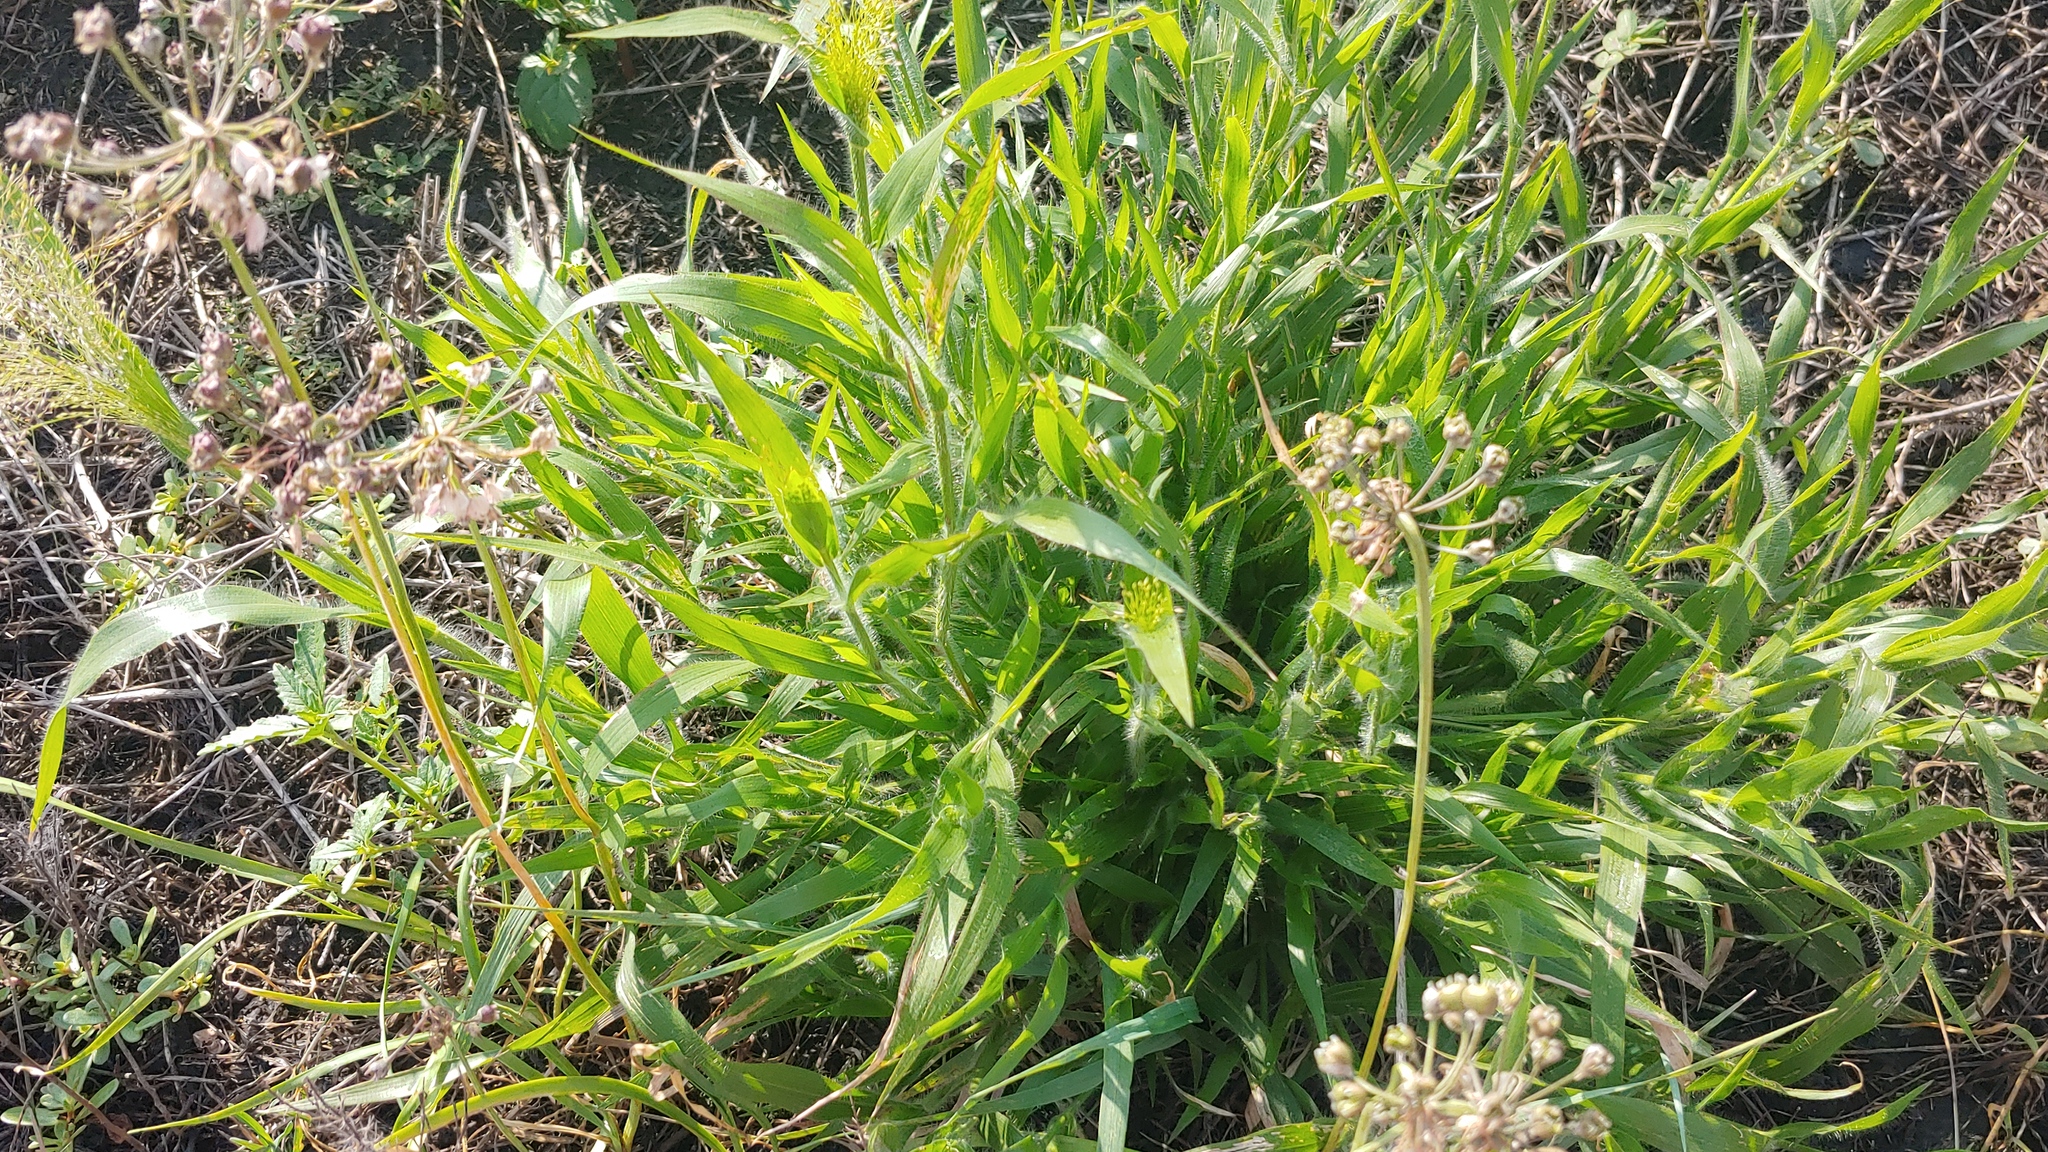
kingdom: Plantae
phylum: Tracheophyta
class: Liliopsida
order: Poales
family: Poaceae
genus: Panicum
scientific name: Panicum capillare
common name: Witch-grass
